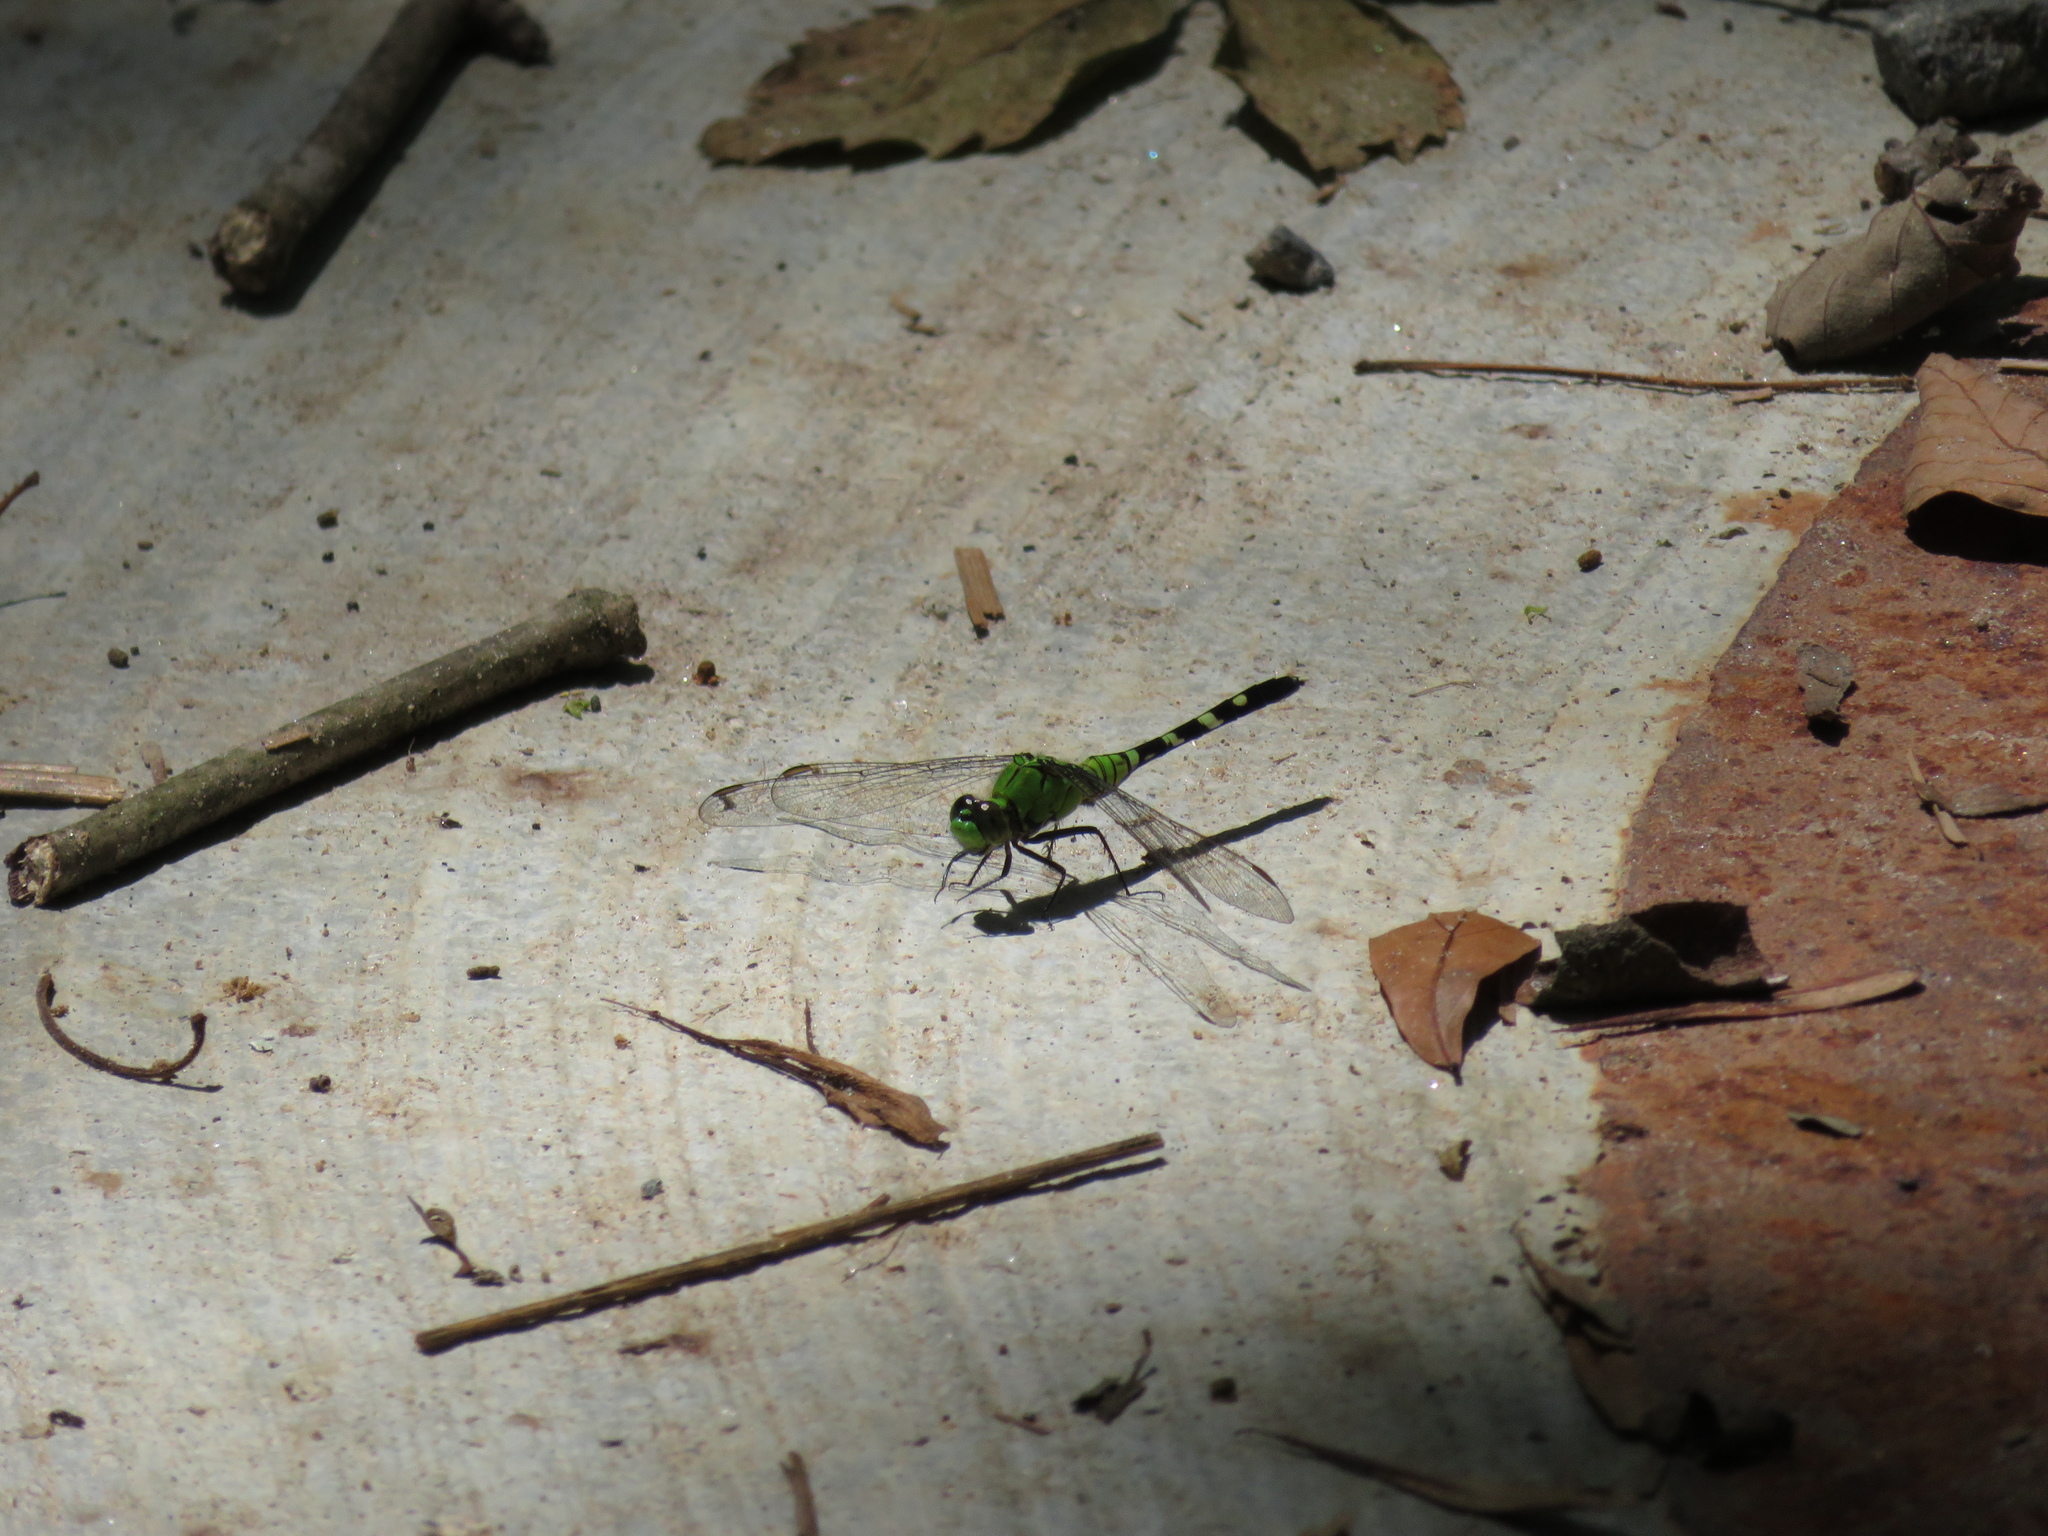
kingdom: Animalia
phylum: Arthropoda
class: Insecta
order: Odonata
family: Libellulidae
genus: Erythemis
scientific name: Erythemis simplicicollis
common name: Eastern pondhawk
